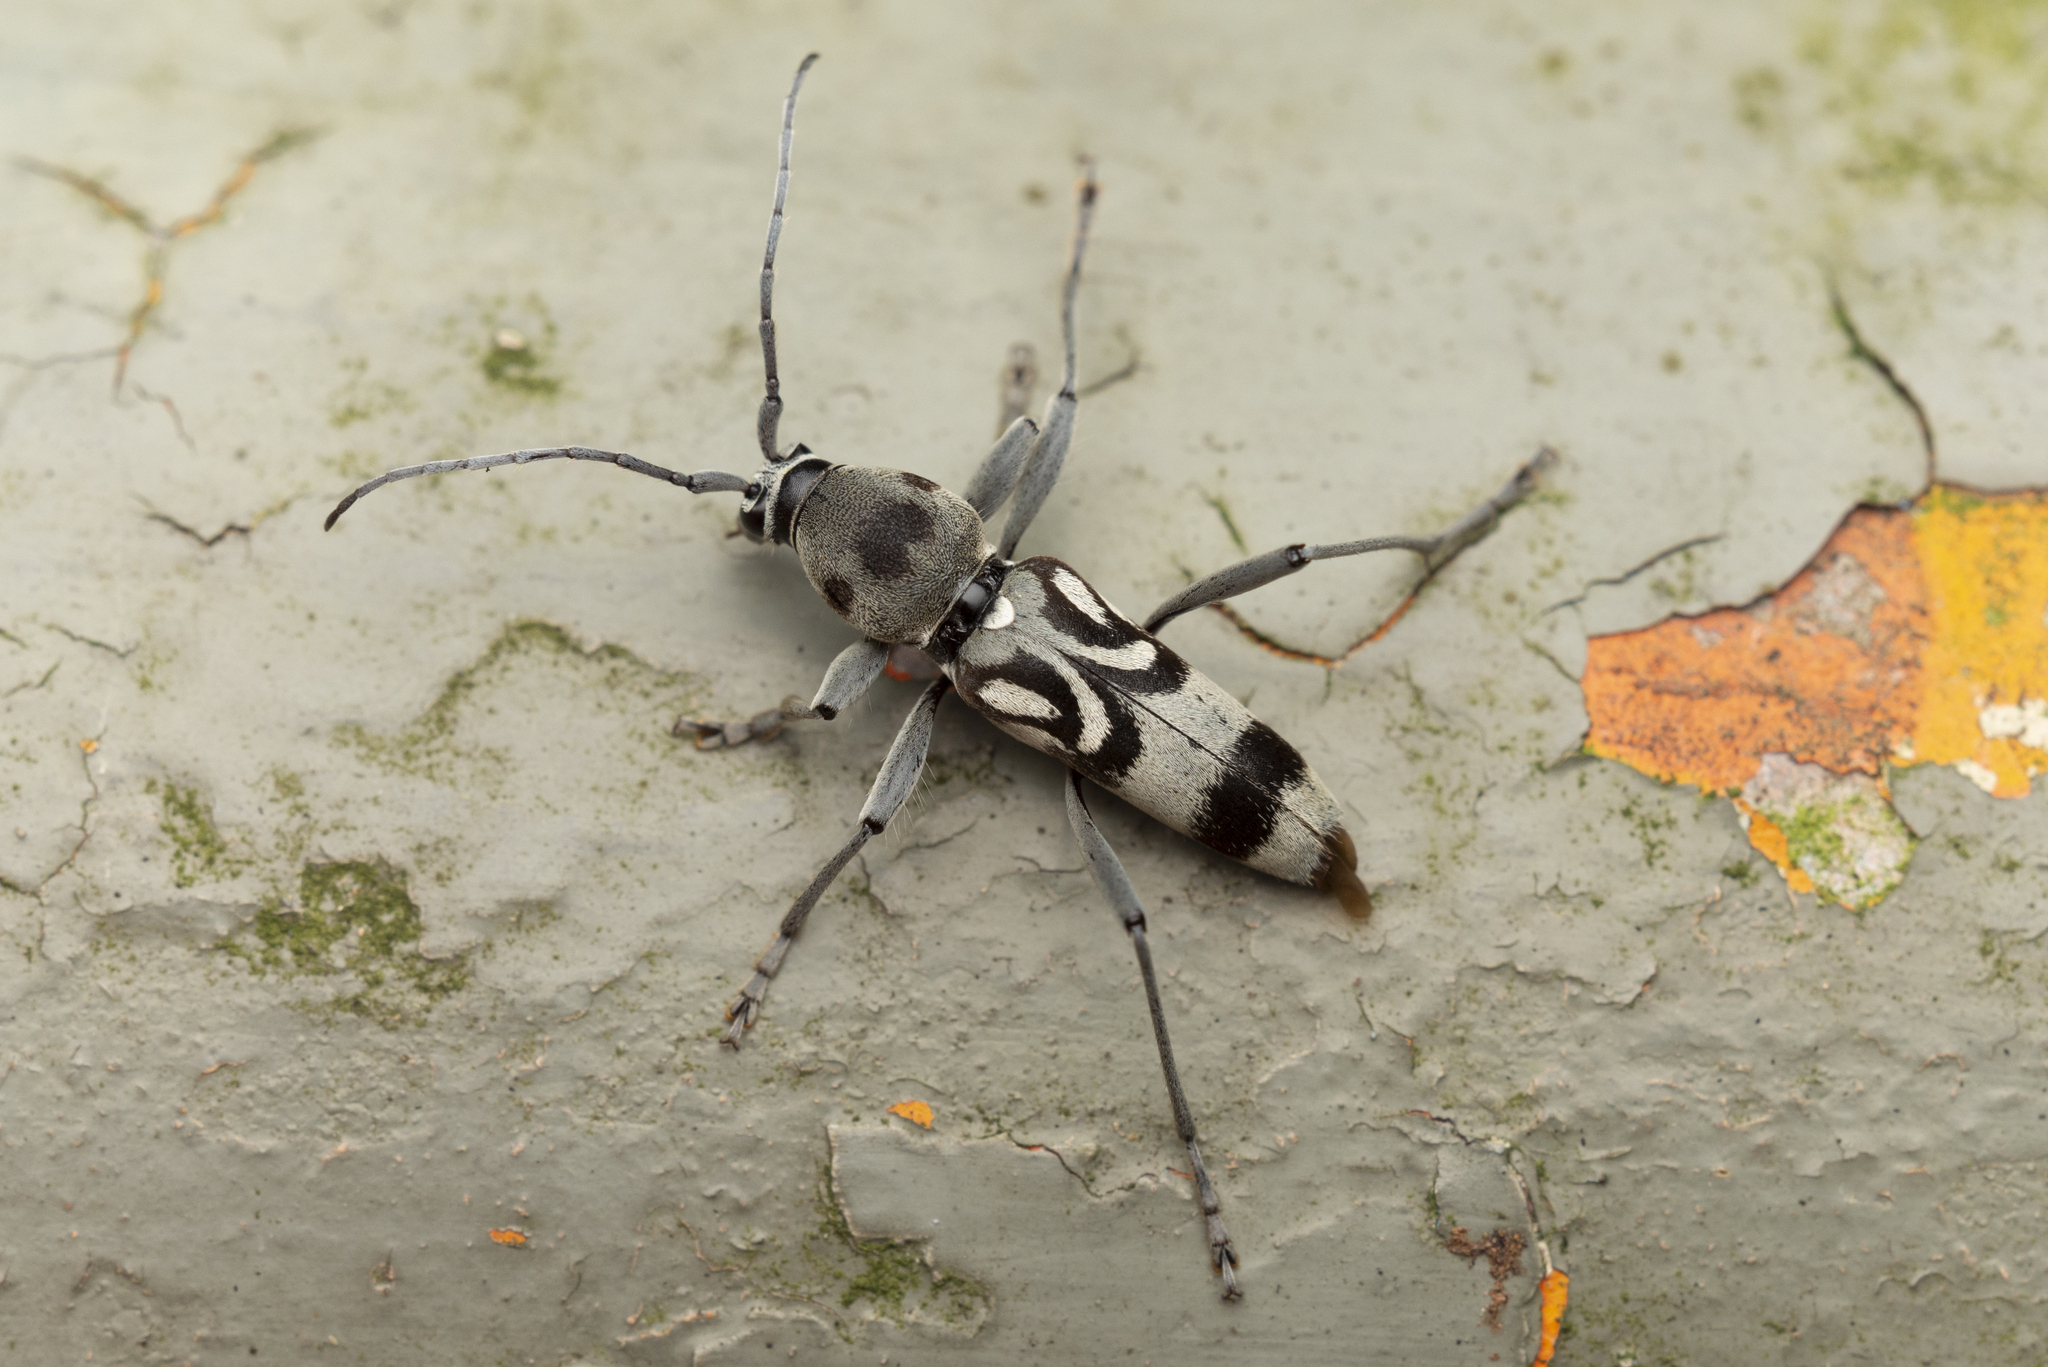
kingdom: Animalia
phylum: Arthropoda
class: Insecta
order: Coleoptera
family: Cerambycidae
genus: Chlorophorus
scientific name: Chlorophorus macaumensis
